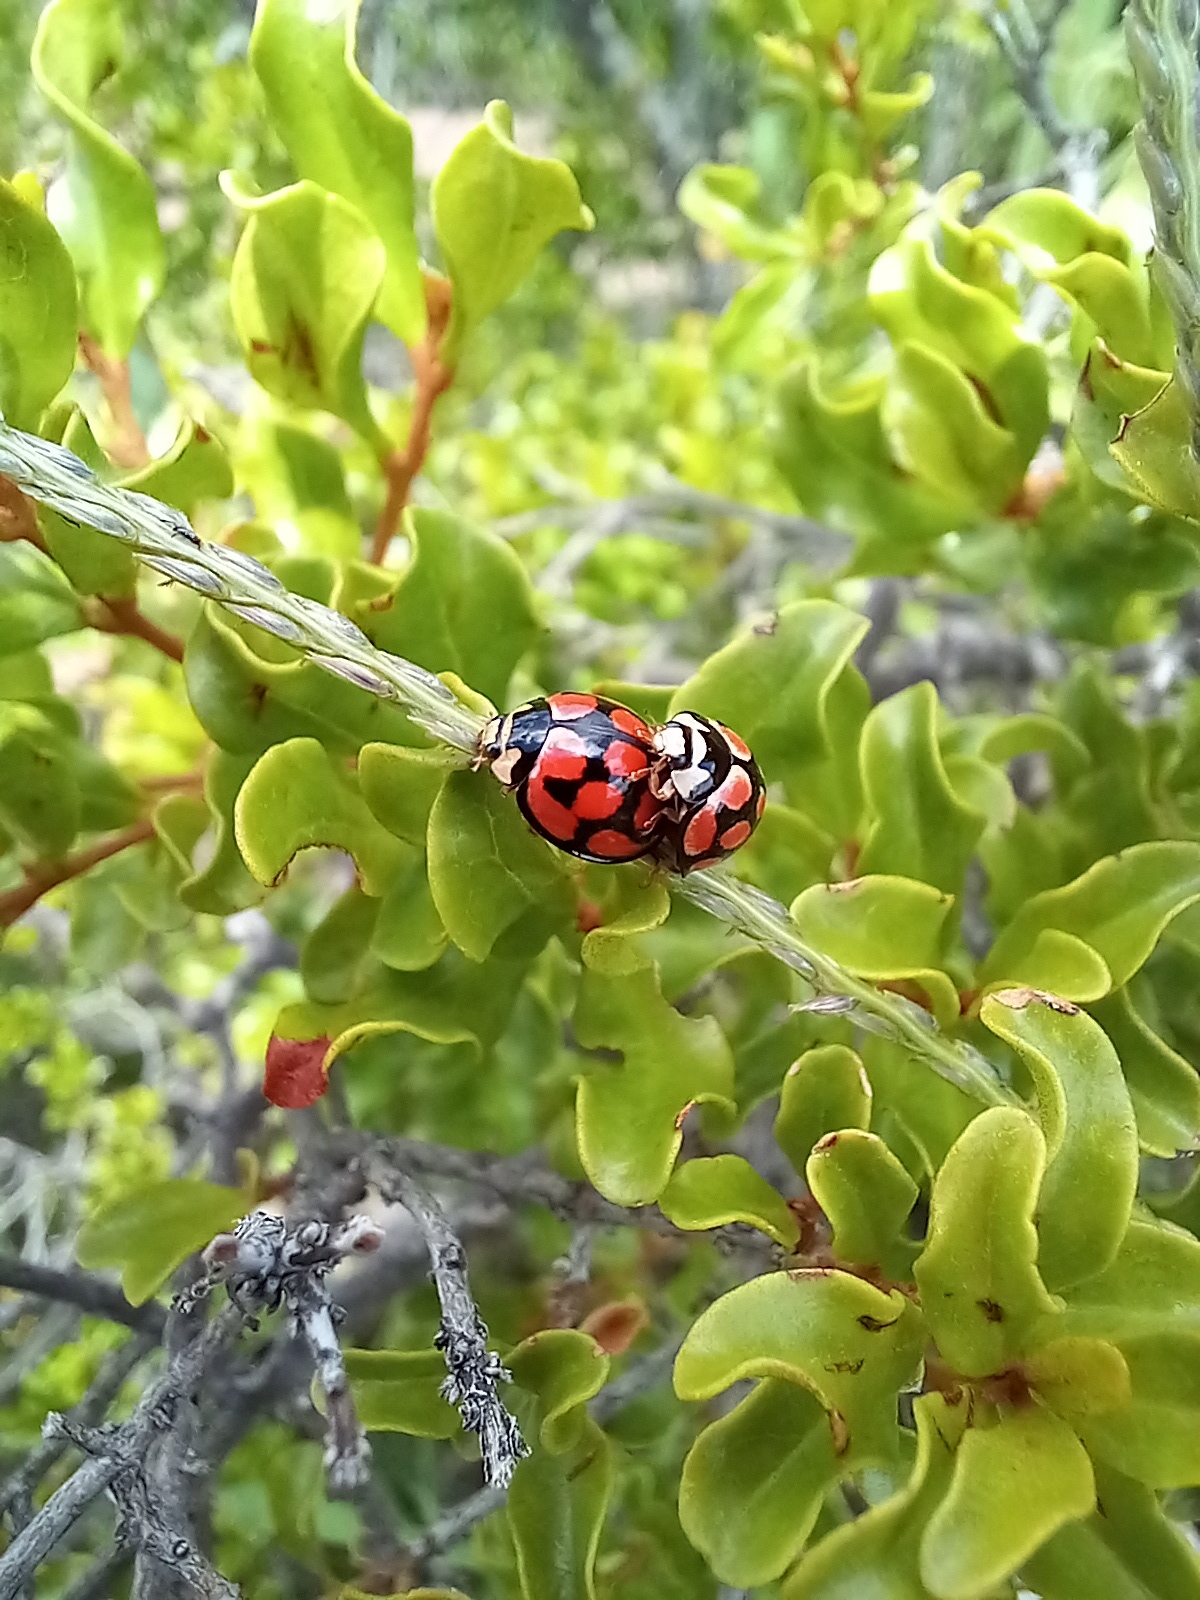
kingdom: Animalia
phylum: Arthropoda
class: Insecta
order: Coleoptera
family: Coccinellidae
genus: Cheilomenes
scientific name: Cheilomenes lunata
